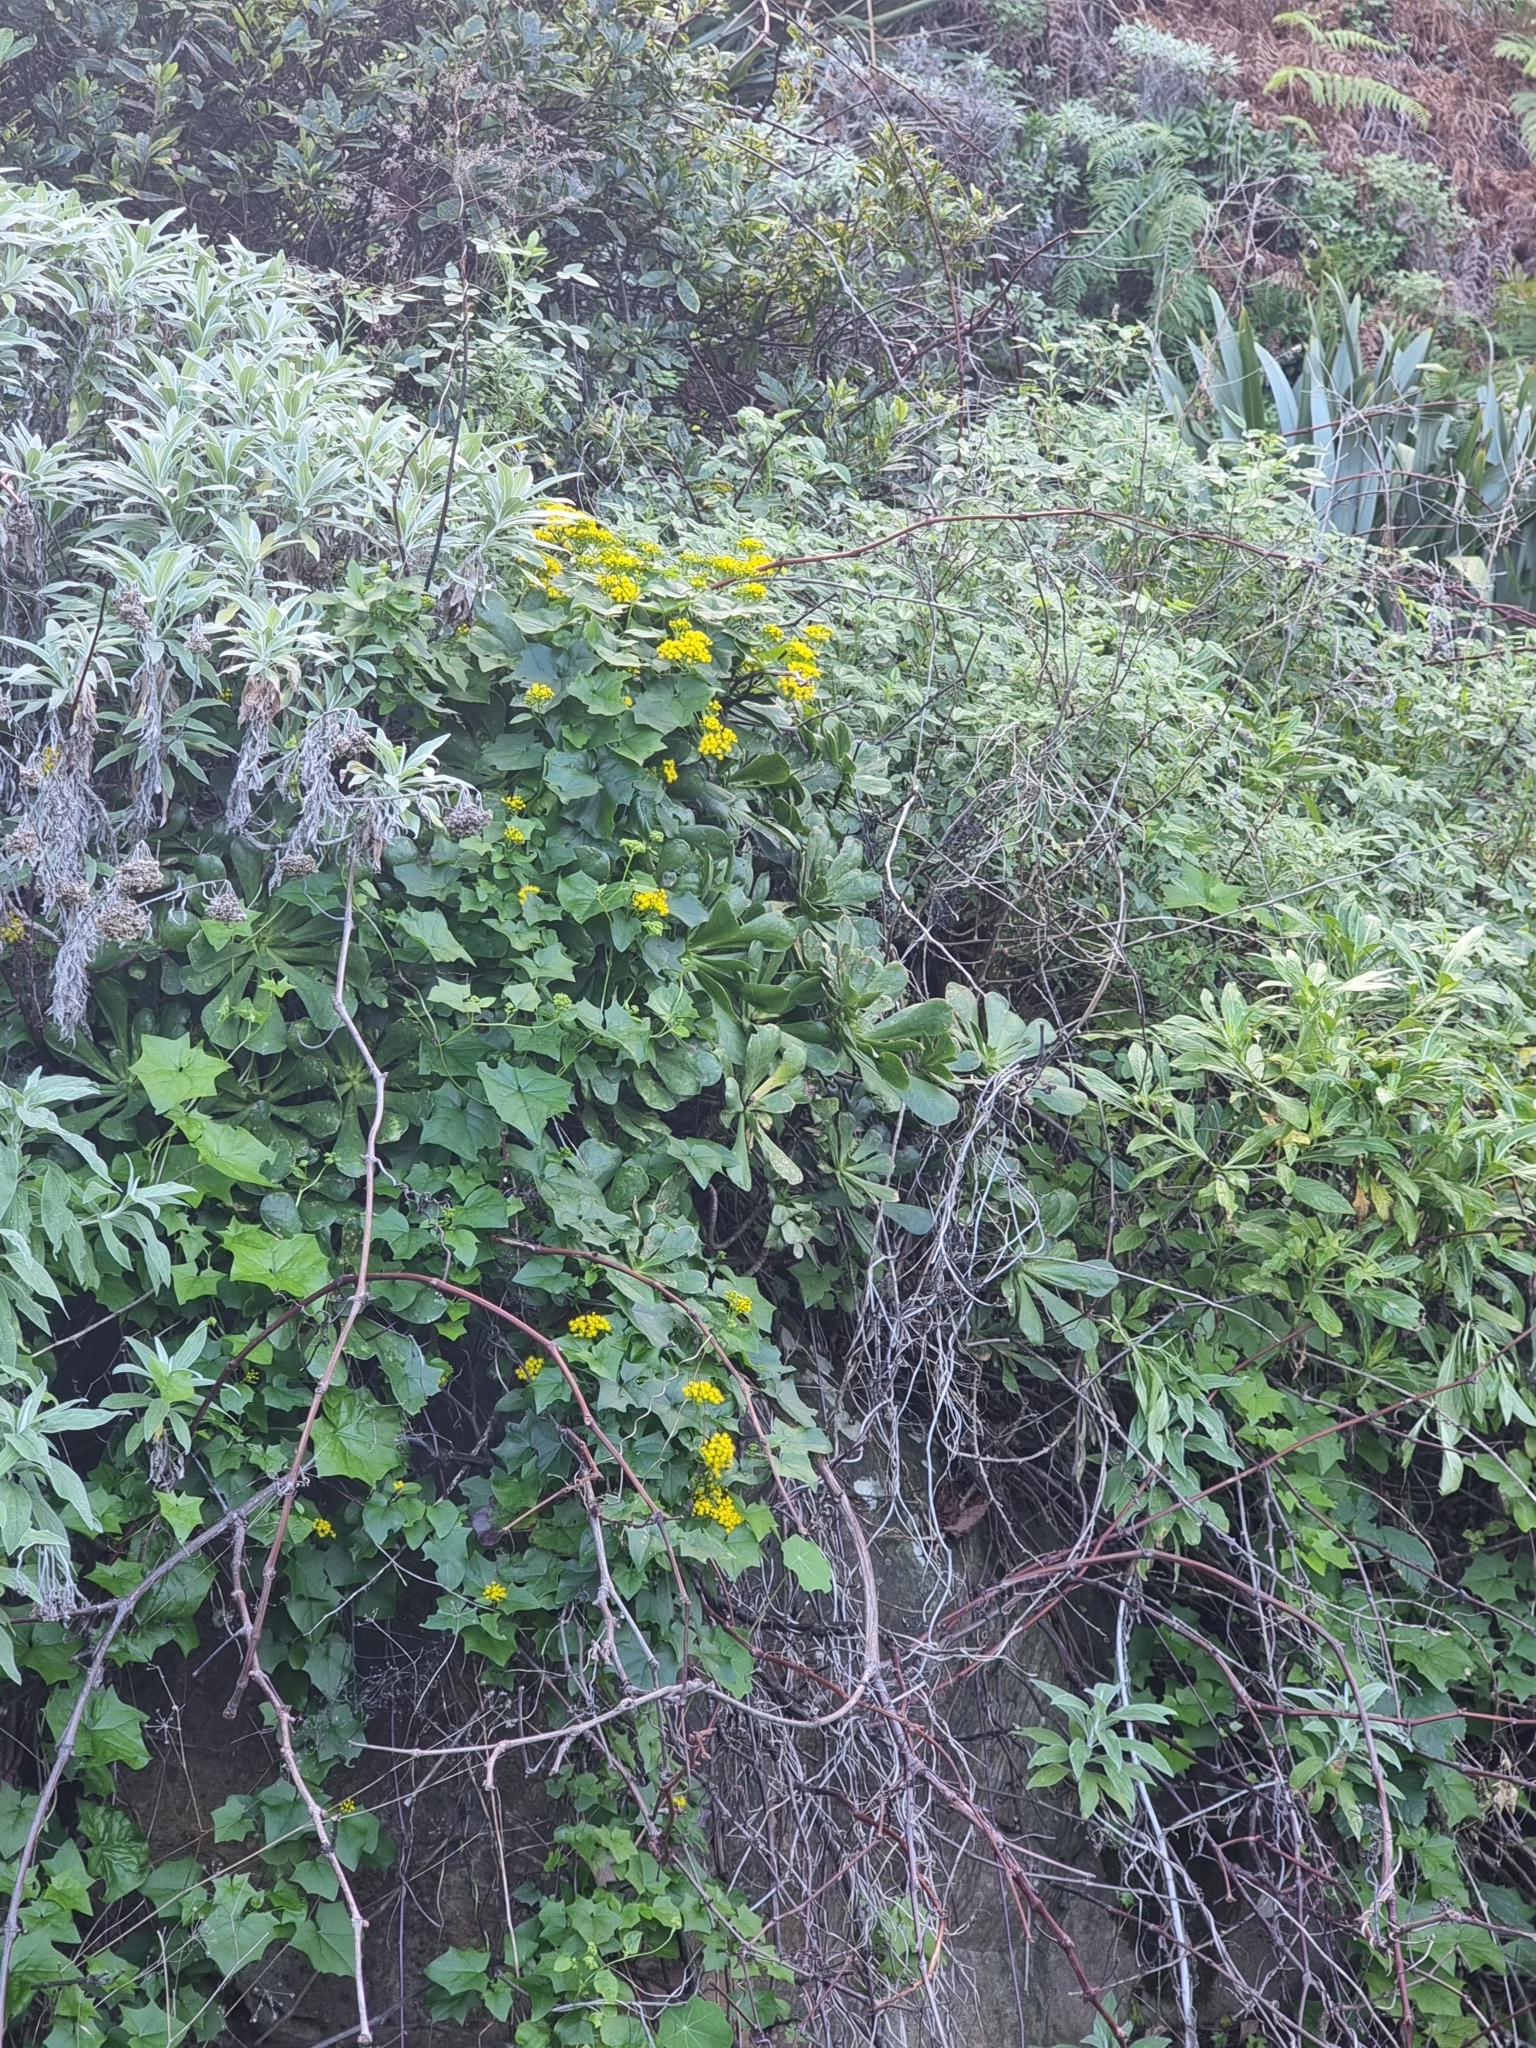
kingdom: Plantae
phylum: Tracheophyta
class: Magnoliopsida
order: Asterales
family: Asteraceae
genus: Delairea
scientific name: Delairea odorata
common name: Cape-ivy
